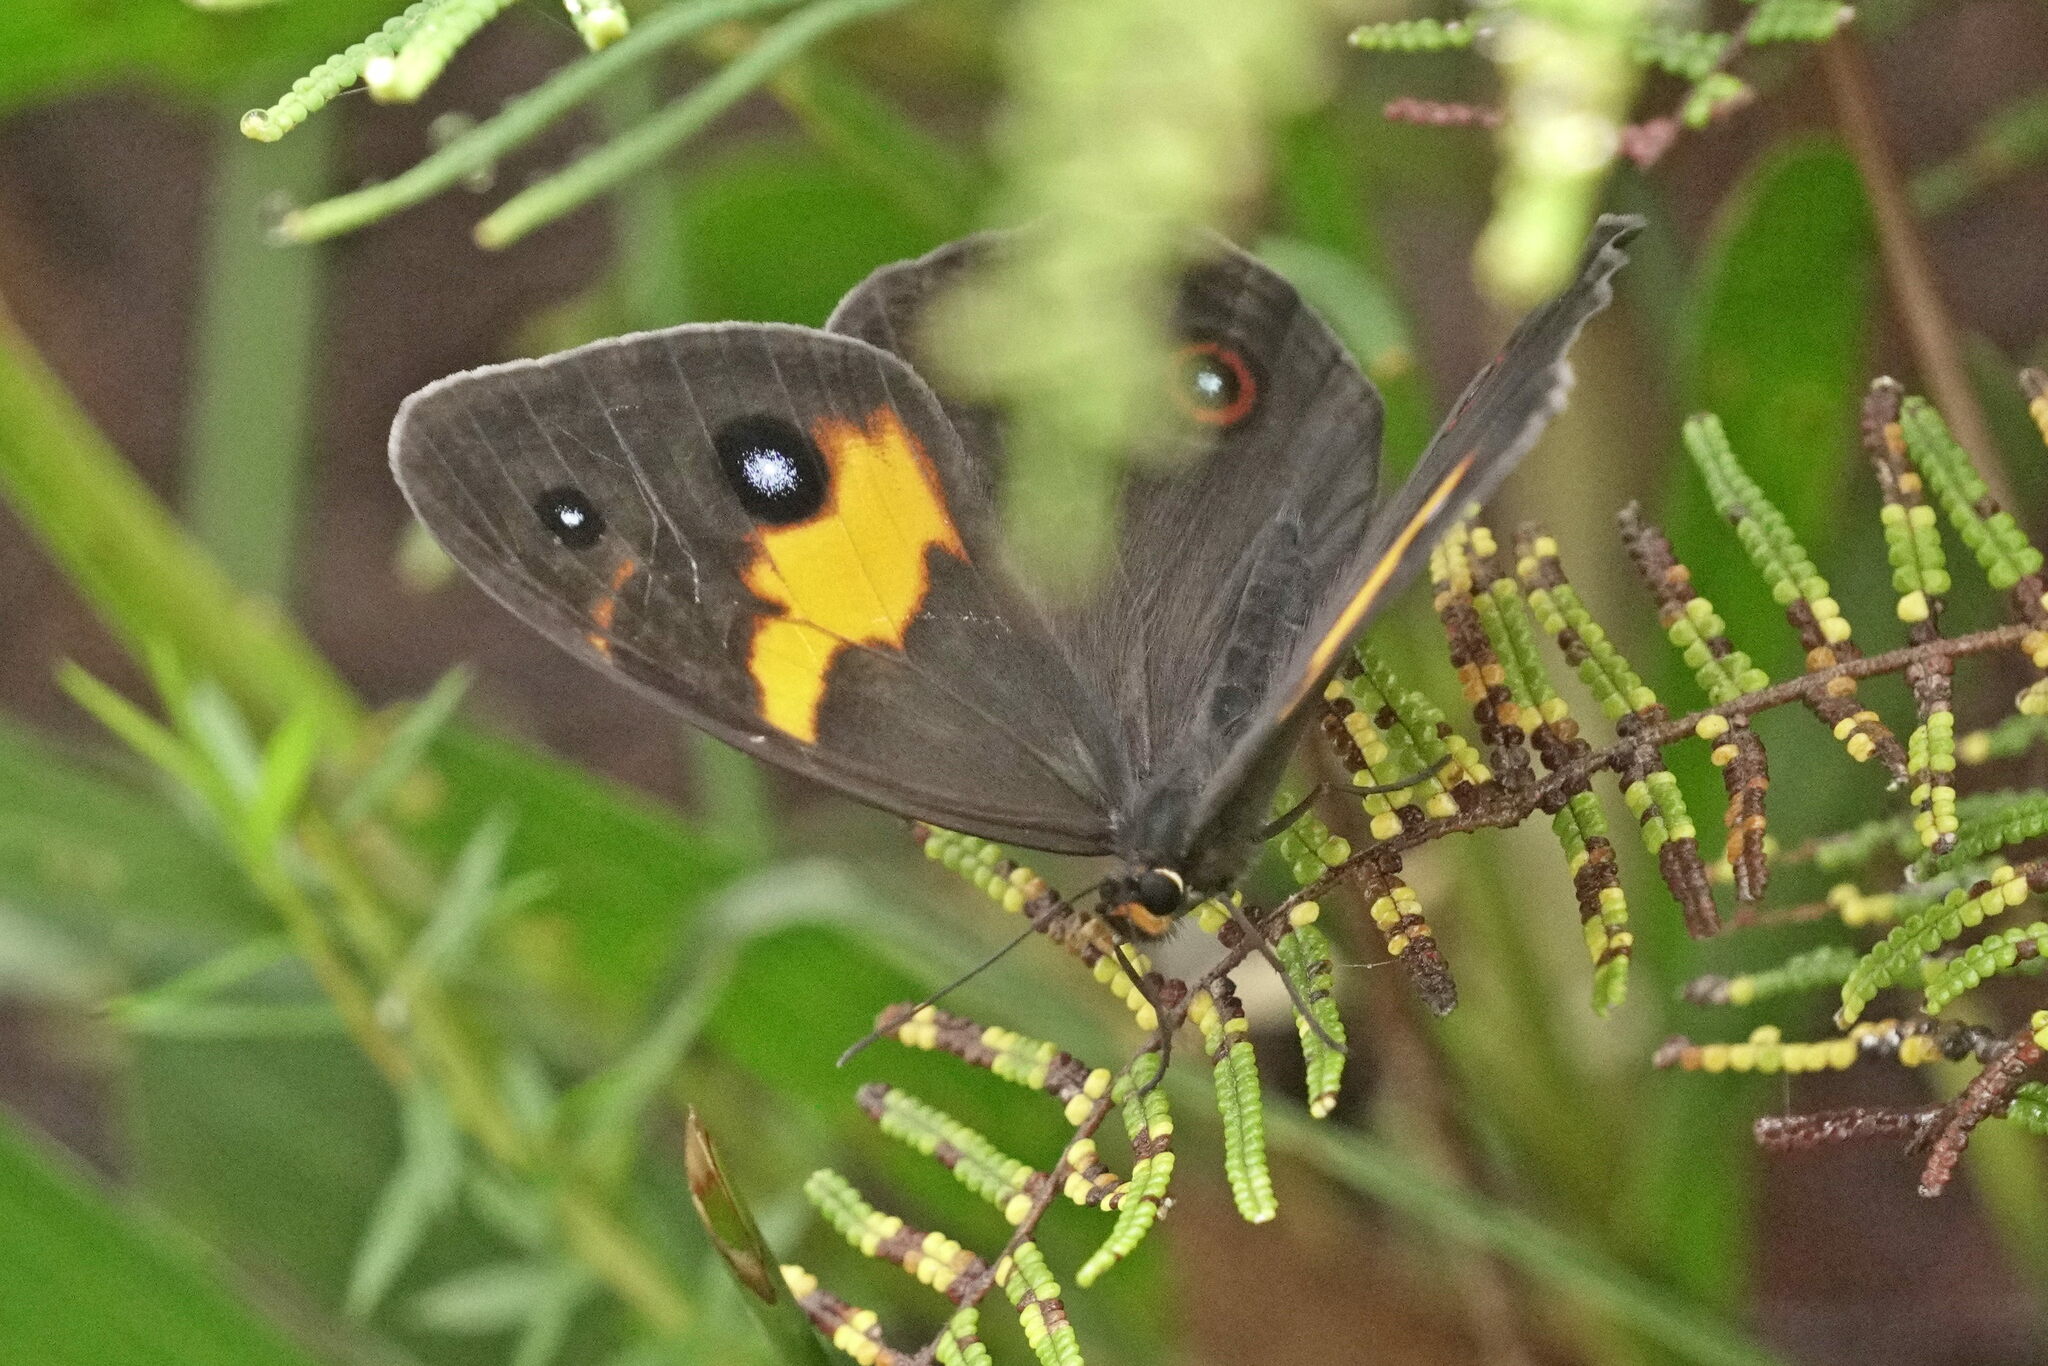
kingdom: Animalia
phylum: Arthropoda
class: Insecta
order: Lepidoptera
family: Nymphalidae
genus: Tisiphone
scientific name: Tisiphone abeona
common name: Swordgrass brown
